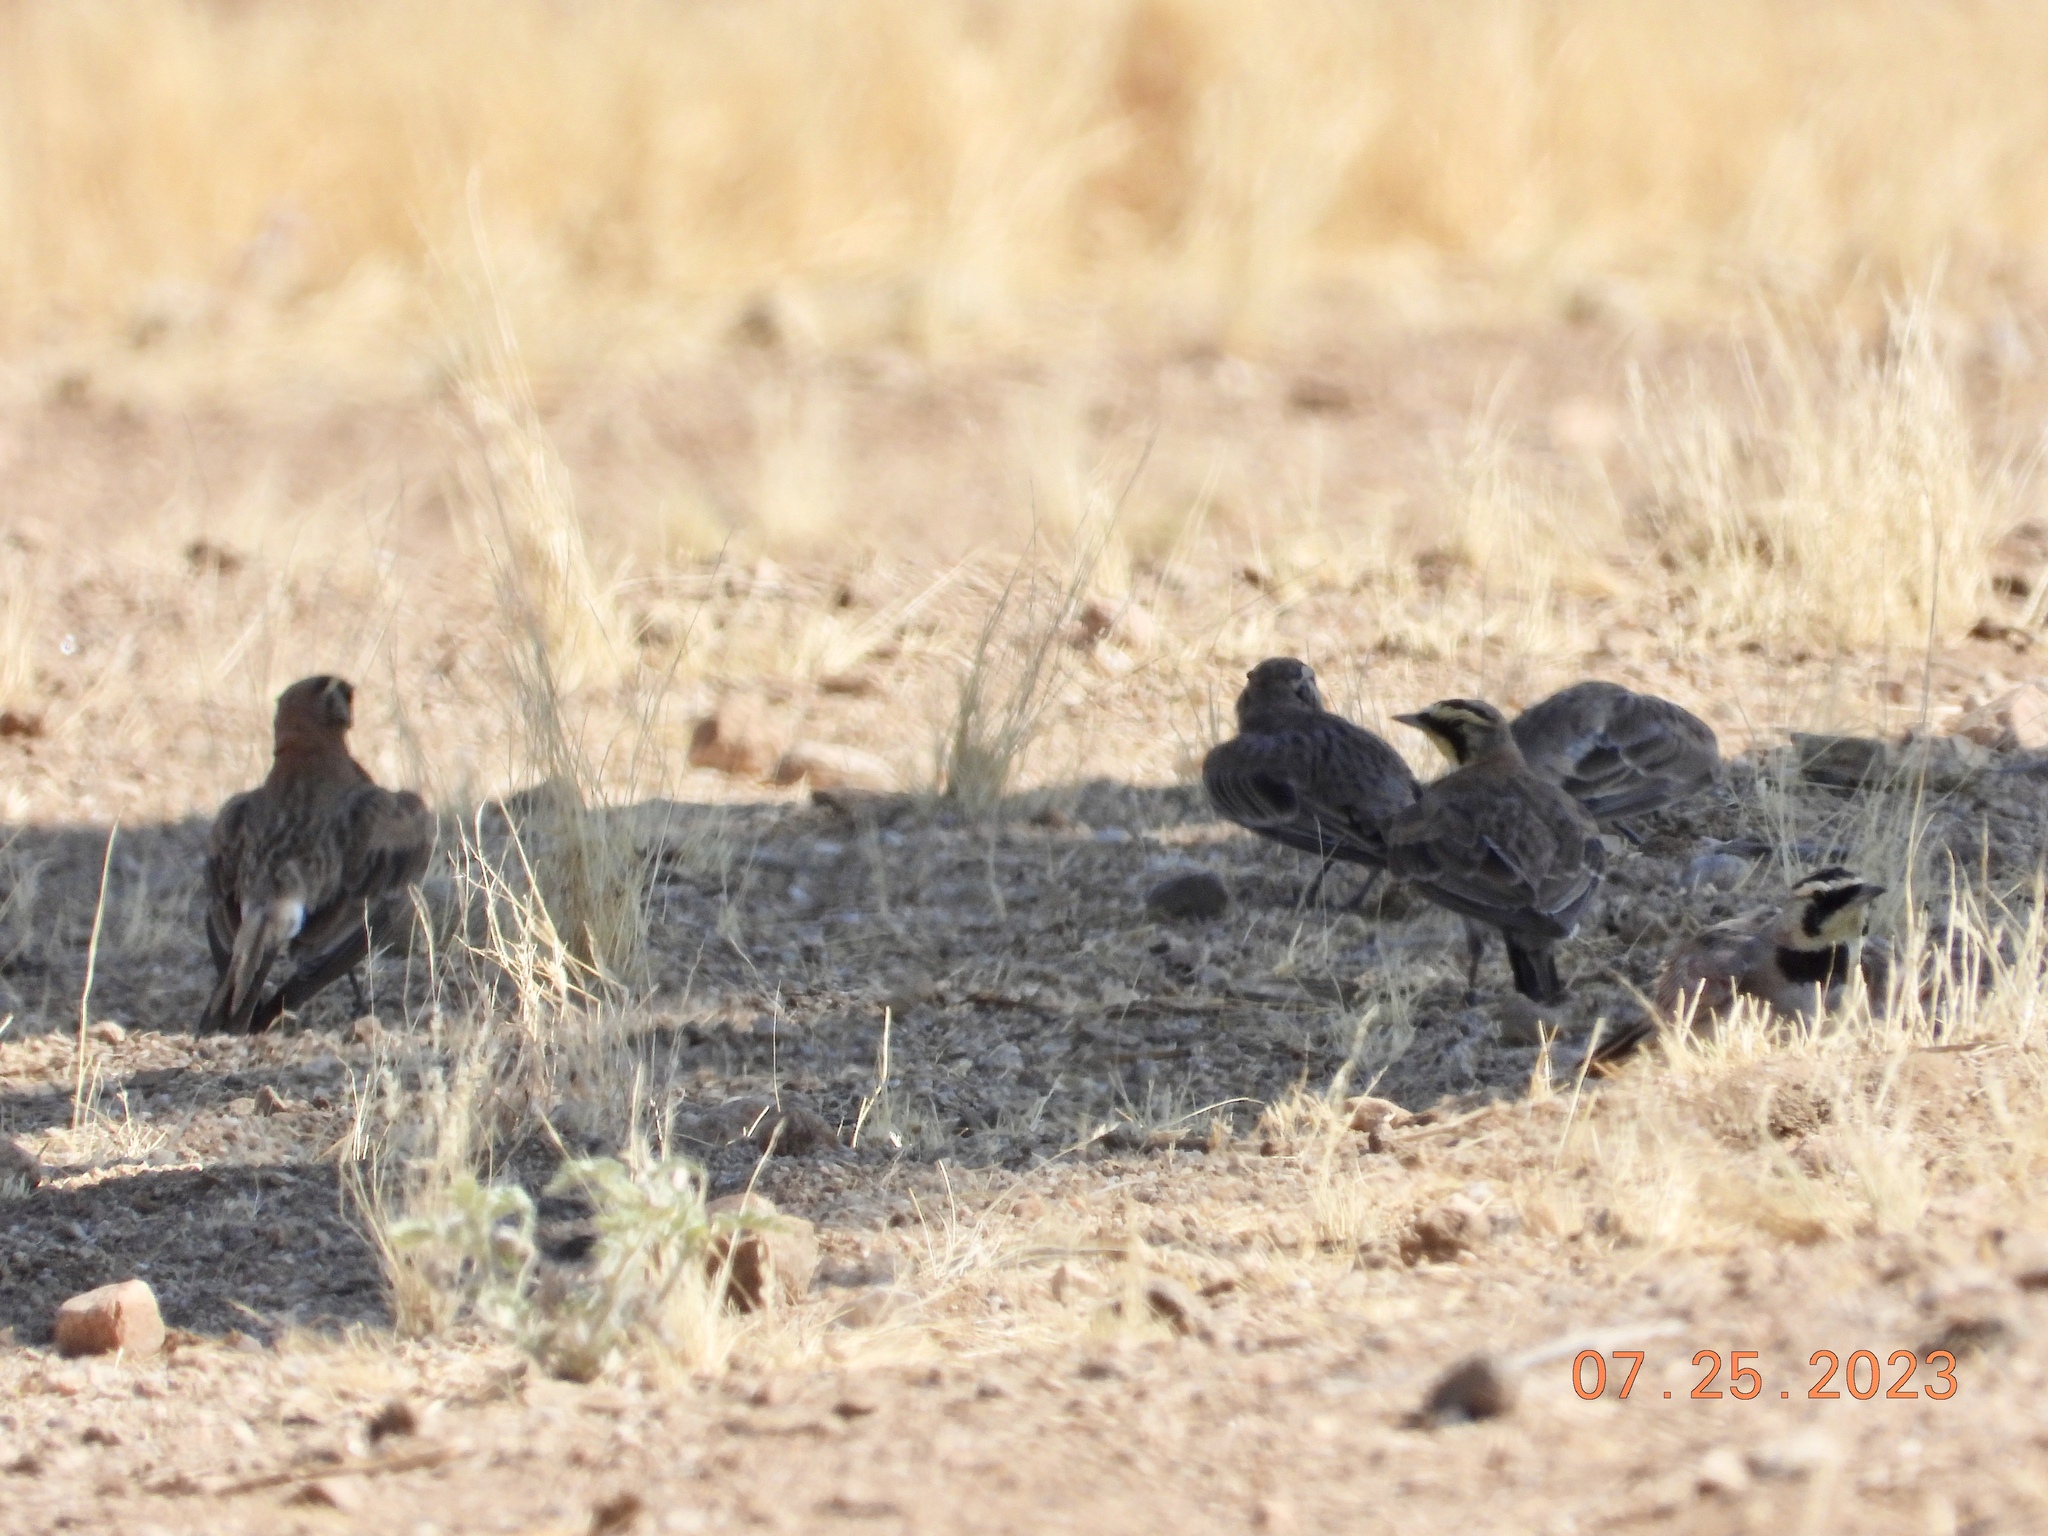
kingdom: Animalia
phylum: Chordata
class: Aves
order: Passeriformes
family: Alaudidae
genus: Eremophila
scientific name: Eremophila alpestris
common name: Horned lark
